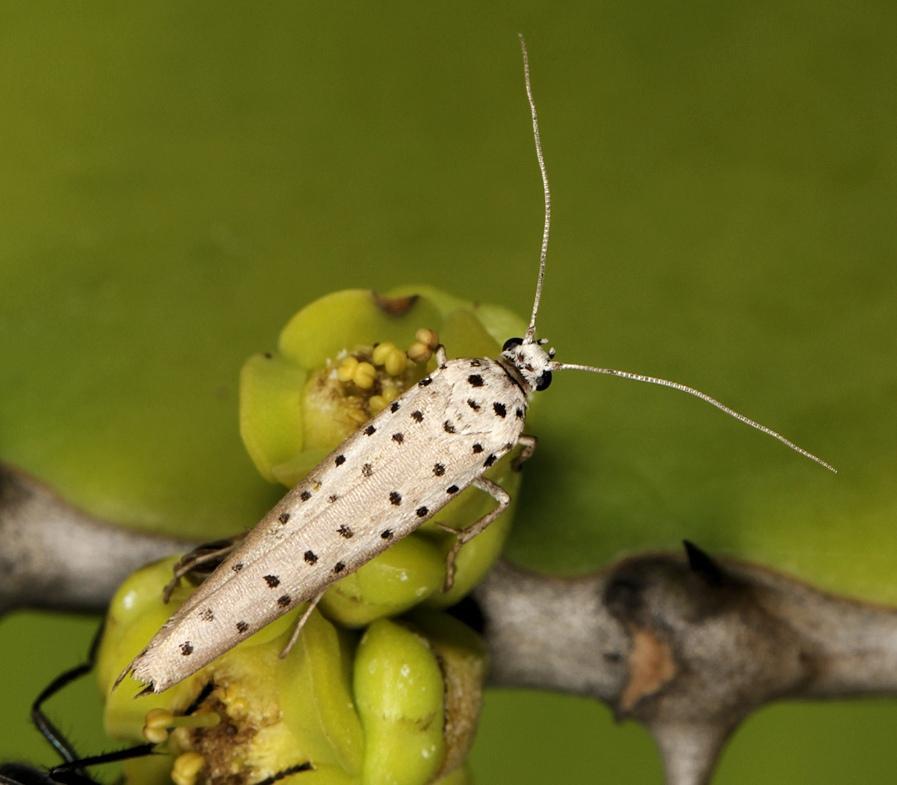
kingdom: Animalia
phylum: Arthropoda
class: Insecta
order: Lepidoptera
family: Yponomeutidae
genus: Yponomeuta
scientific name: Yponomeuta fumigata
